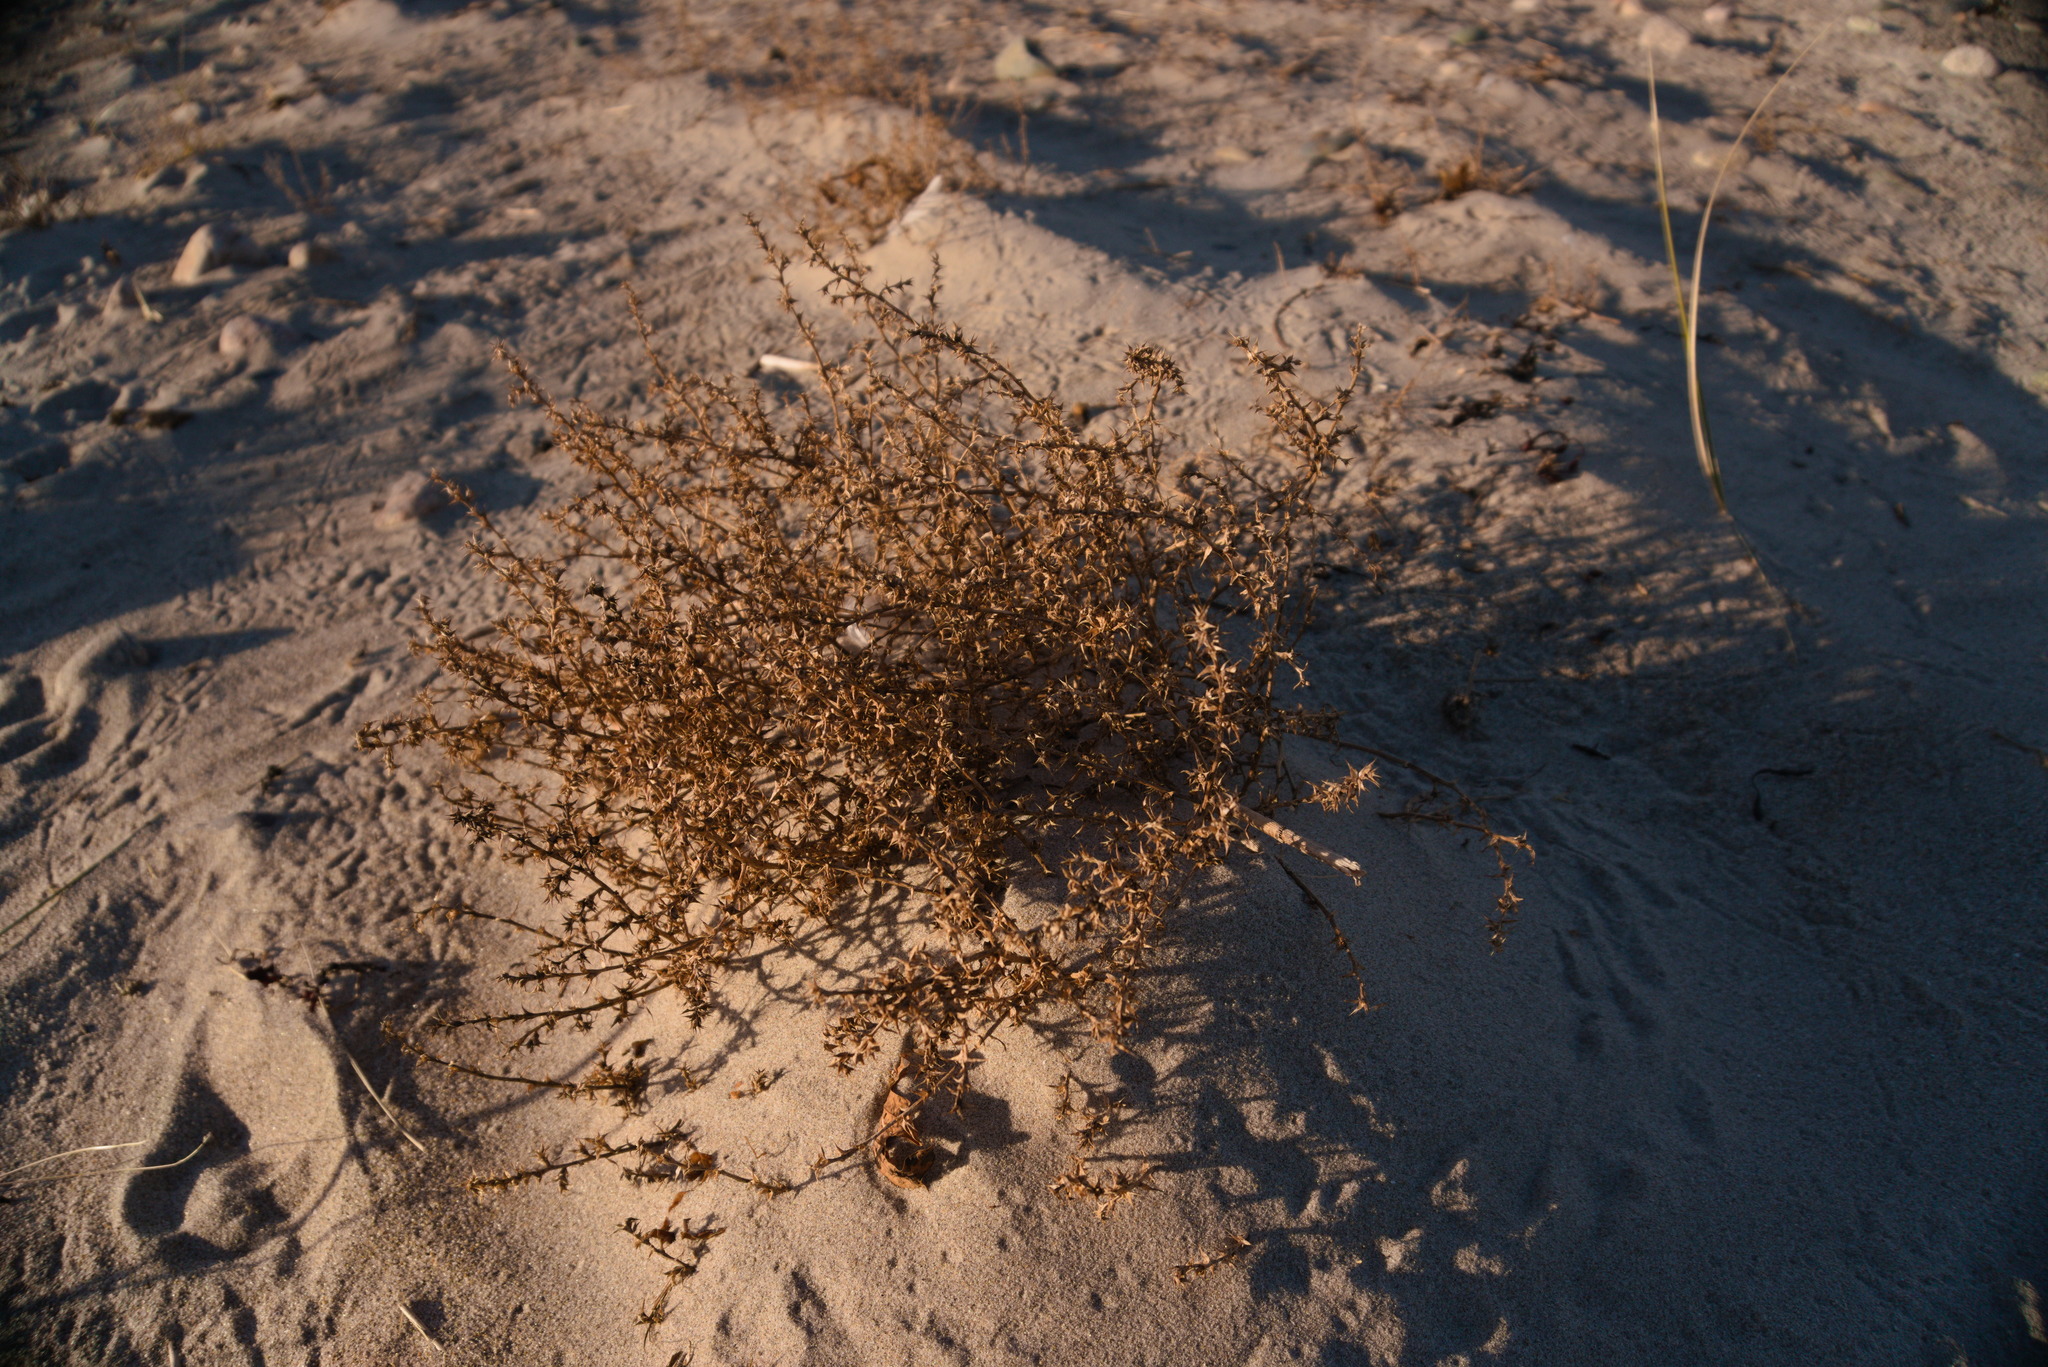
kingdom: Plantae
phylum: Tracheophyta
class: Magnoliopsida
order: Caryophyllales
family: Amaranthaceae
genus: Salsola
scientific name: Salsola kali
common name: Saltwort
